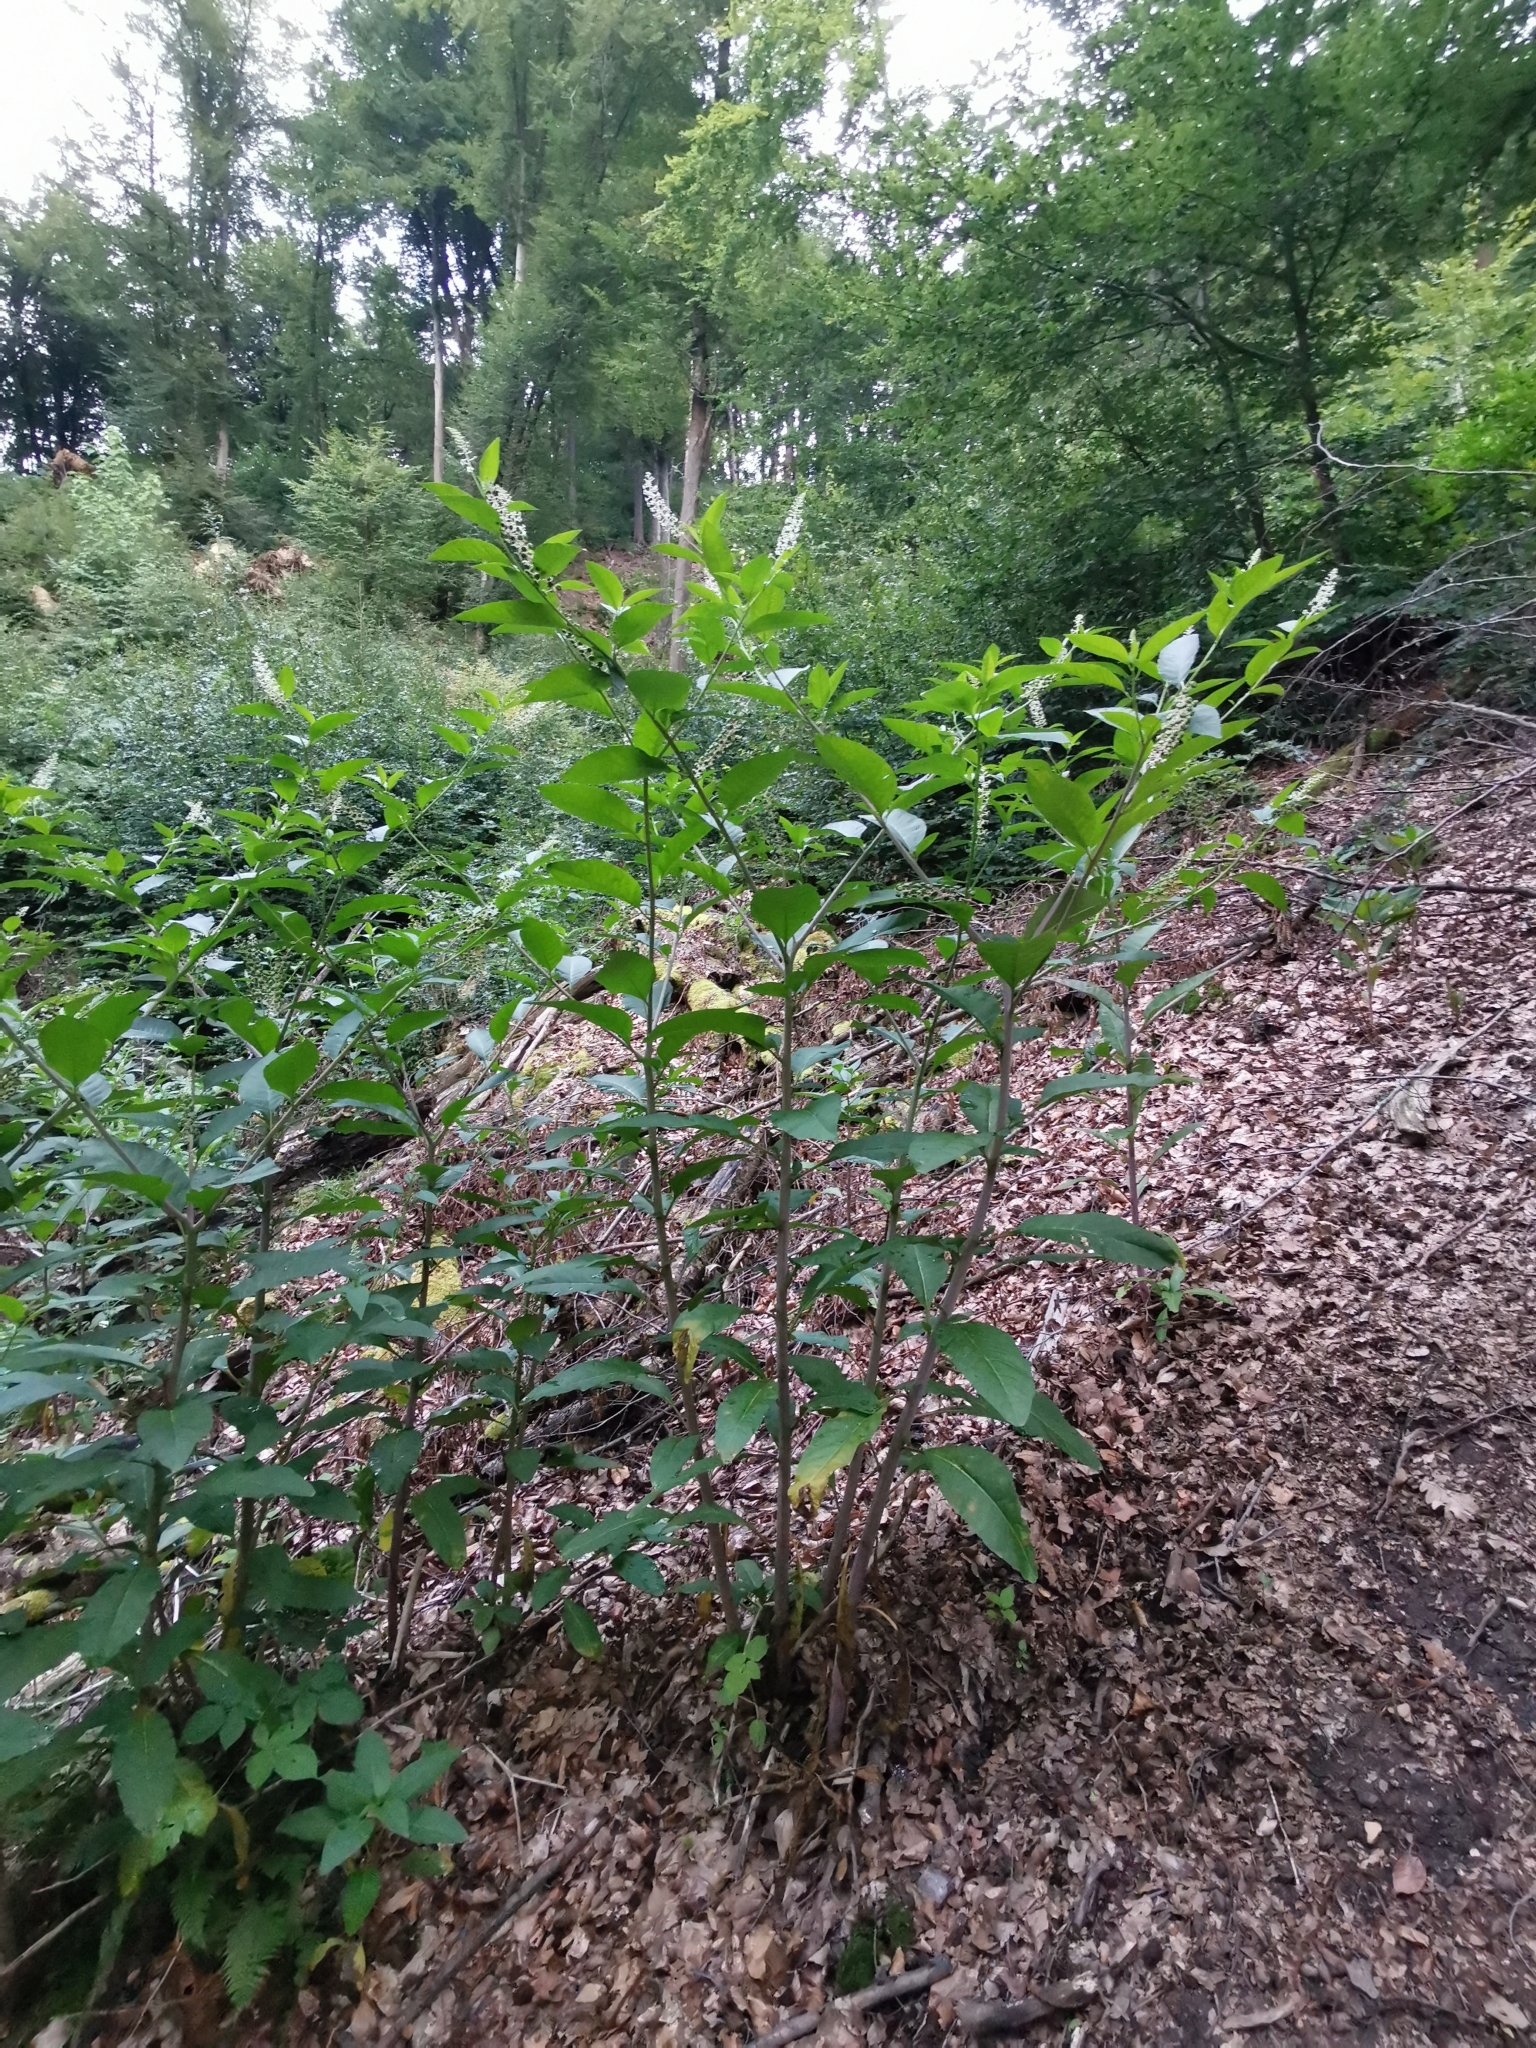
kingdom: Plantae
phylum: Tracheophyta
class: Magnoliopsida
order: Caryophyllales
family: Phytolaccaceae
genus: Phytolacca
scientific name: Phytolacca americana
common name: American pokeweed
